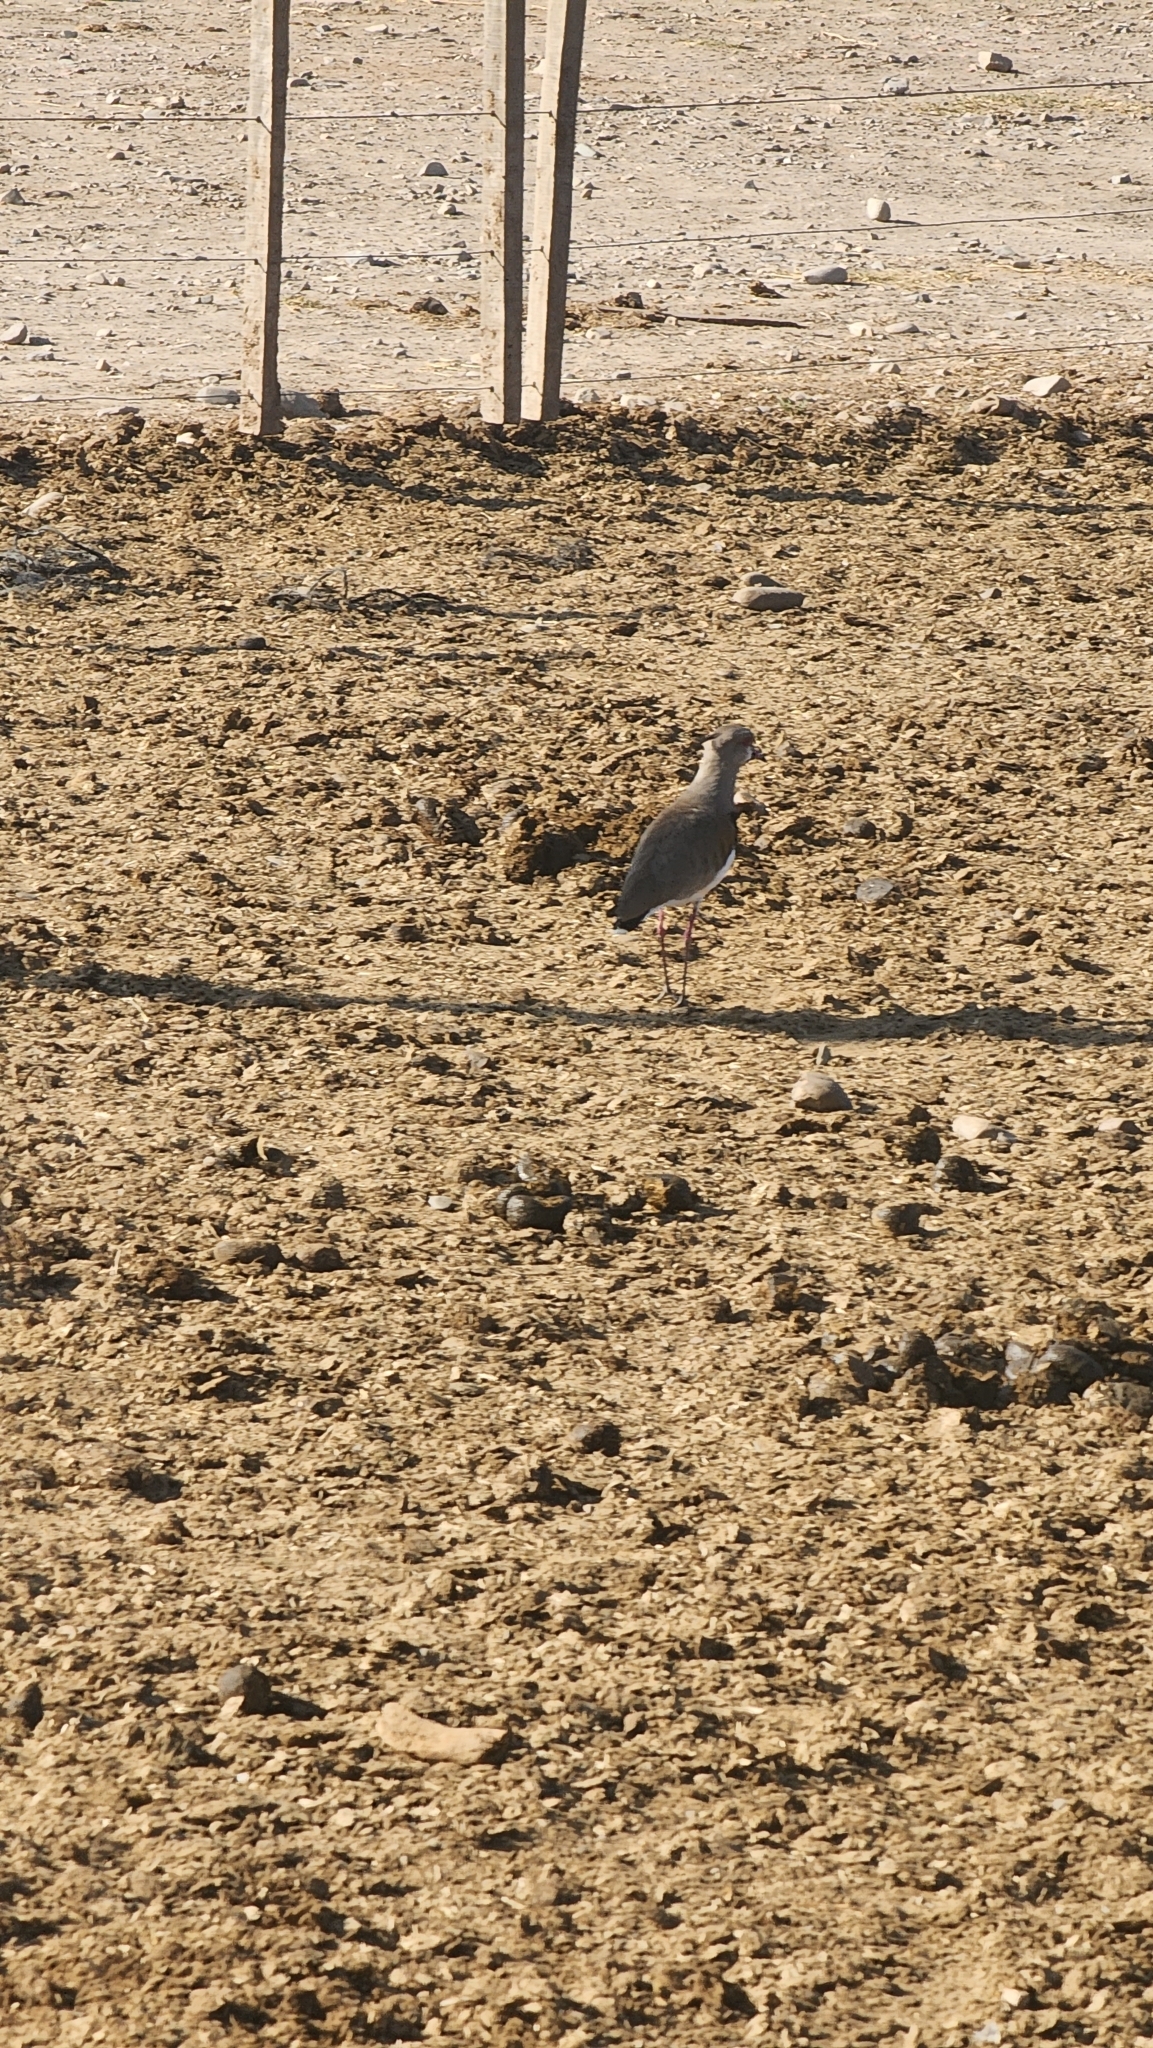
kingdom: Animalia
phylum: Chordata
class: Aves
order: Charadriiformes
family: Charadriidae
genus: Vanellus
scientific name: Vanellus chilensis
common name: Southern lapwing
